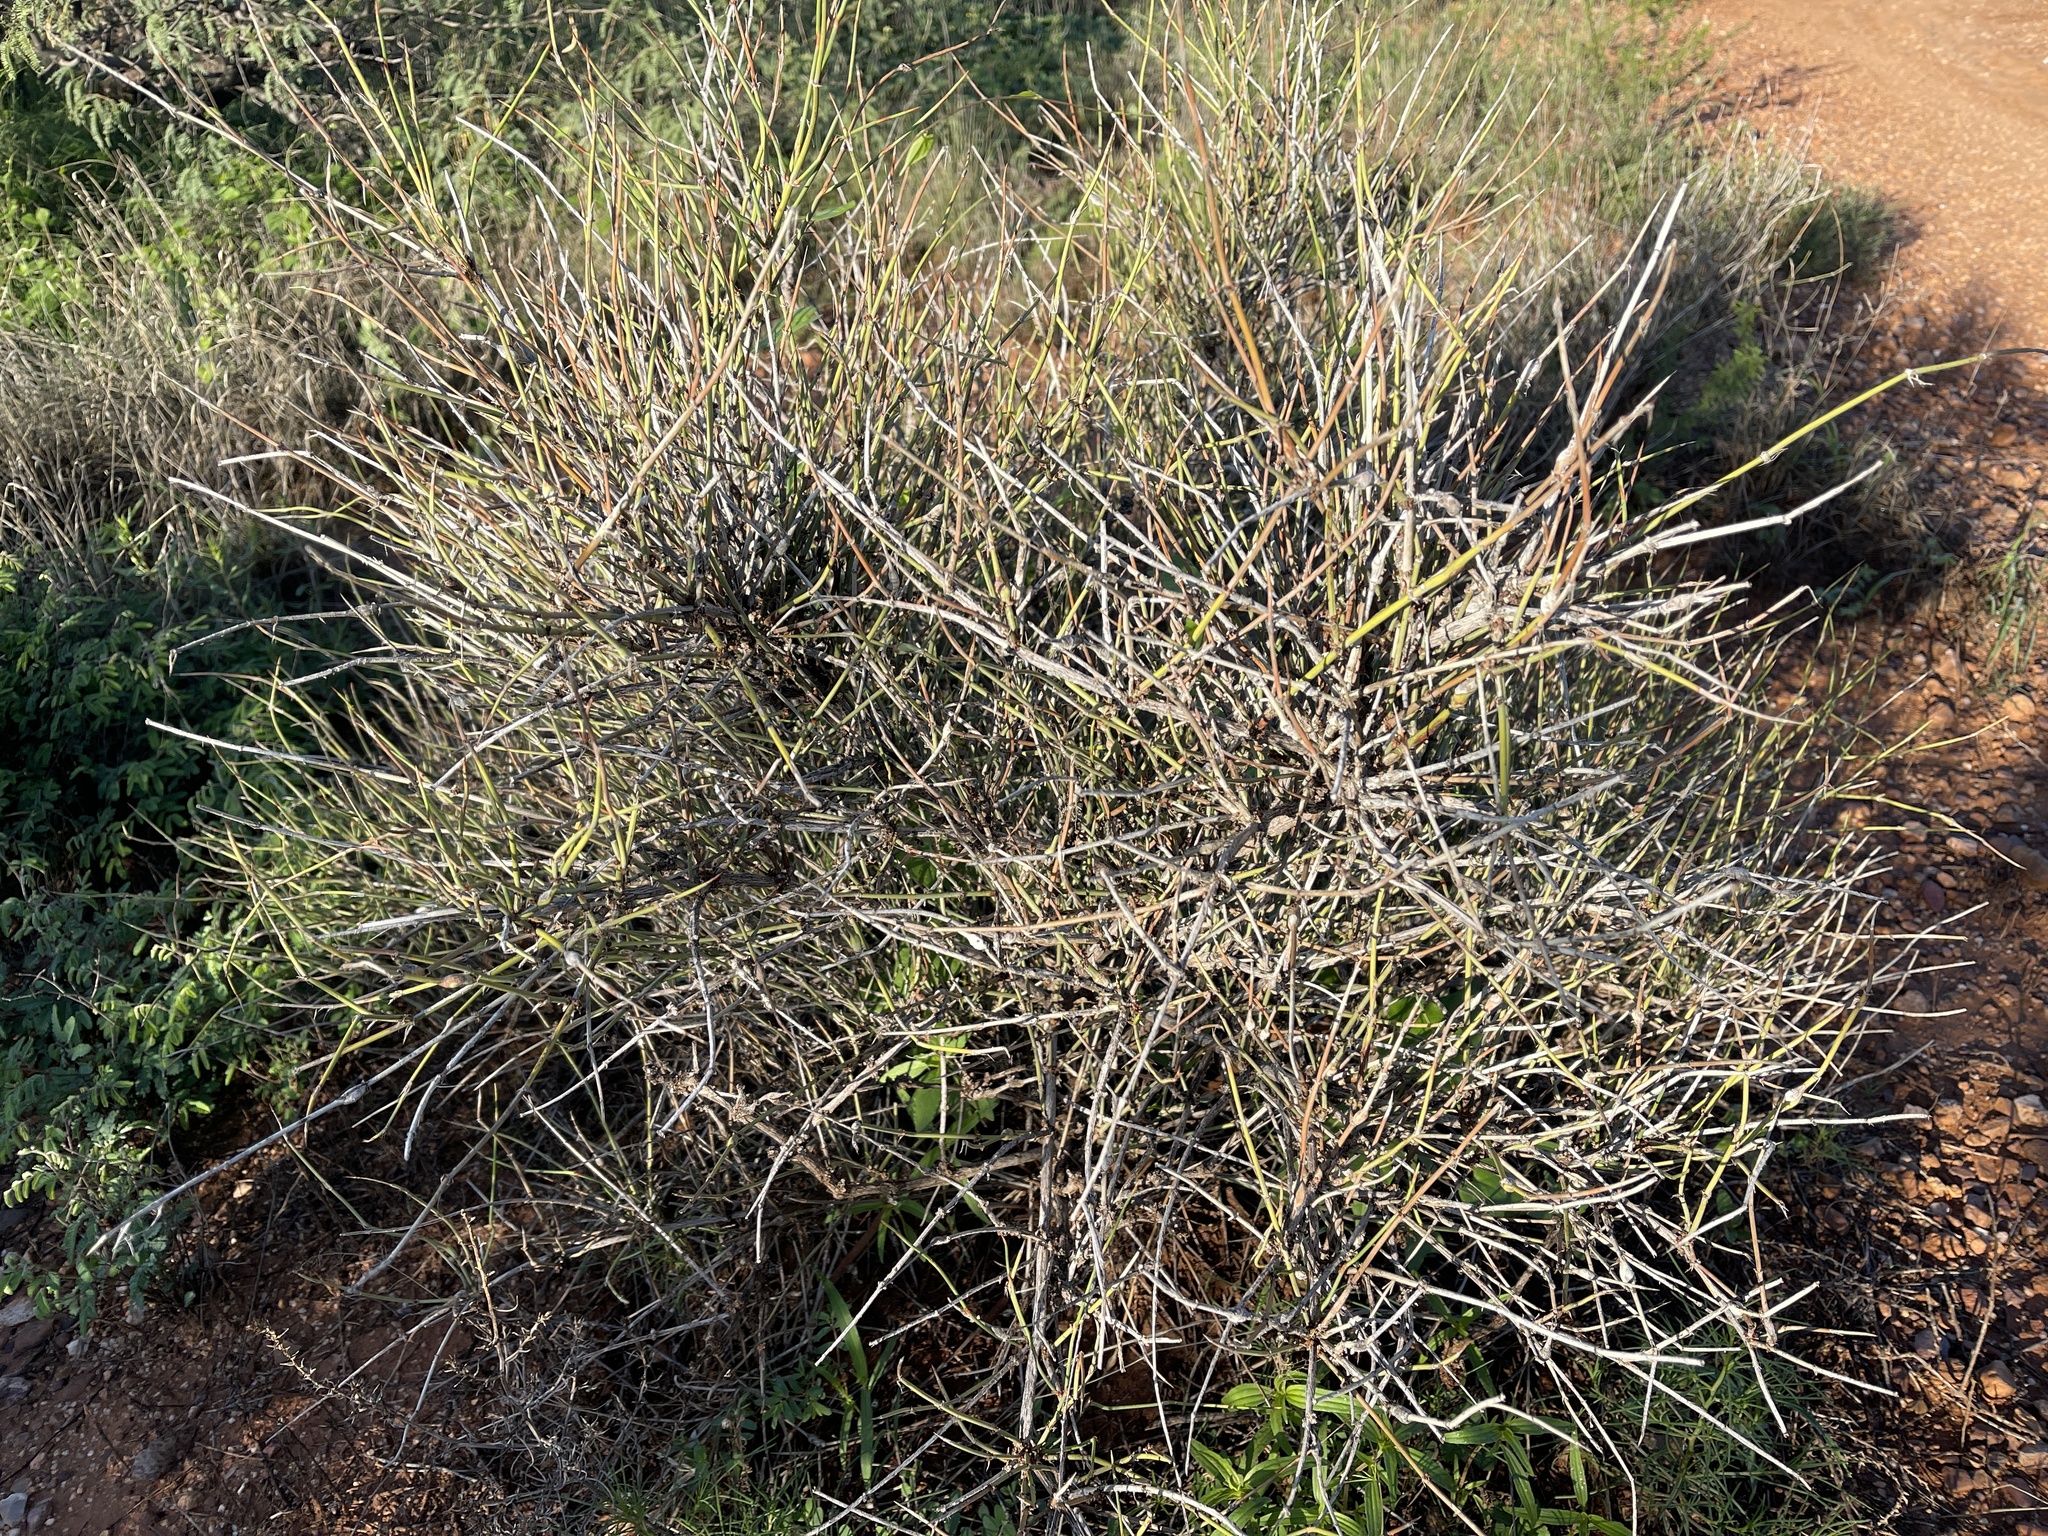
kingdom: Plantae
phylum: Tracheophyta
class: Gnetopsida
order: Ephedrales
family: Ephedraceae
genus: Ephedra
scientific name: Ephedra trifurca
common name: Mexican-tea
